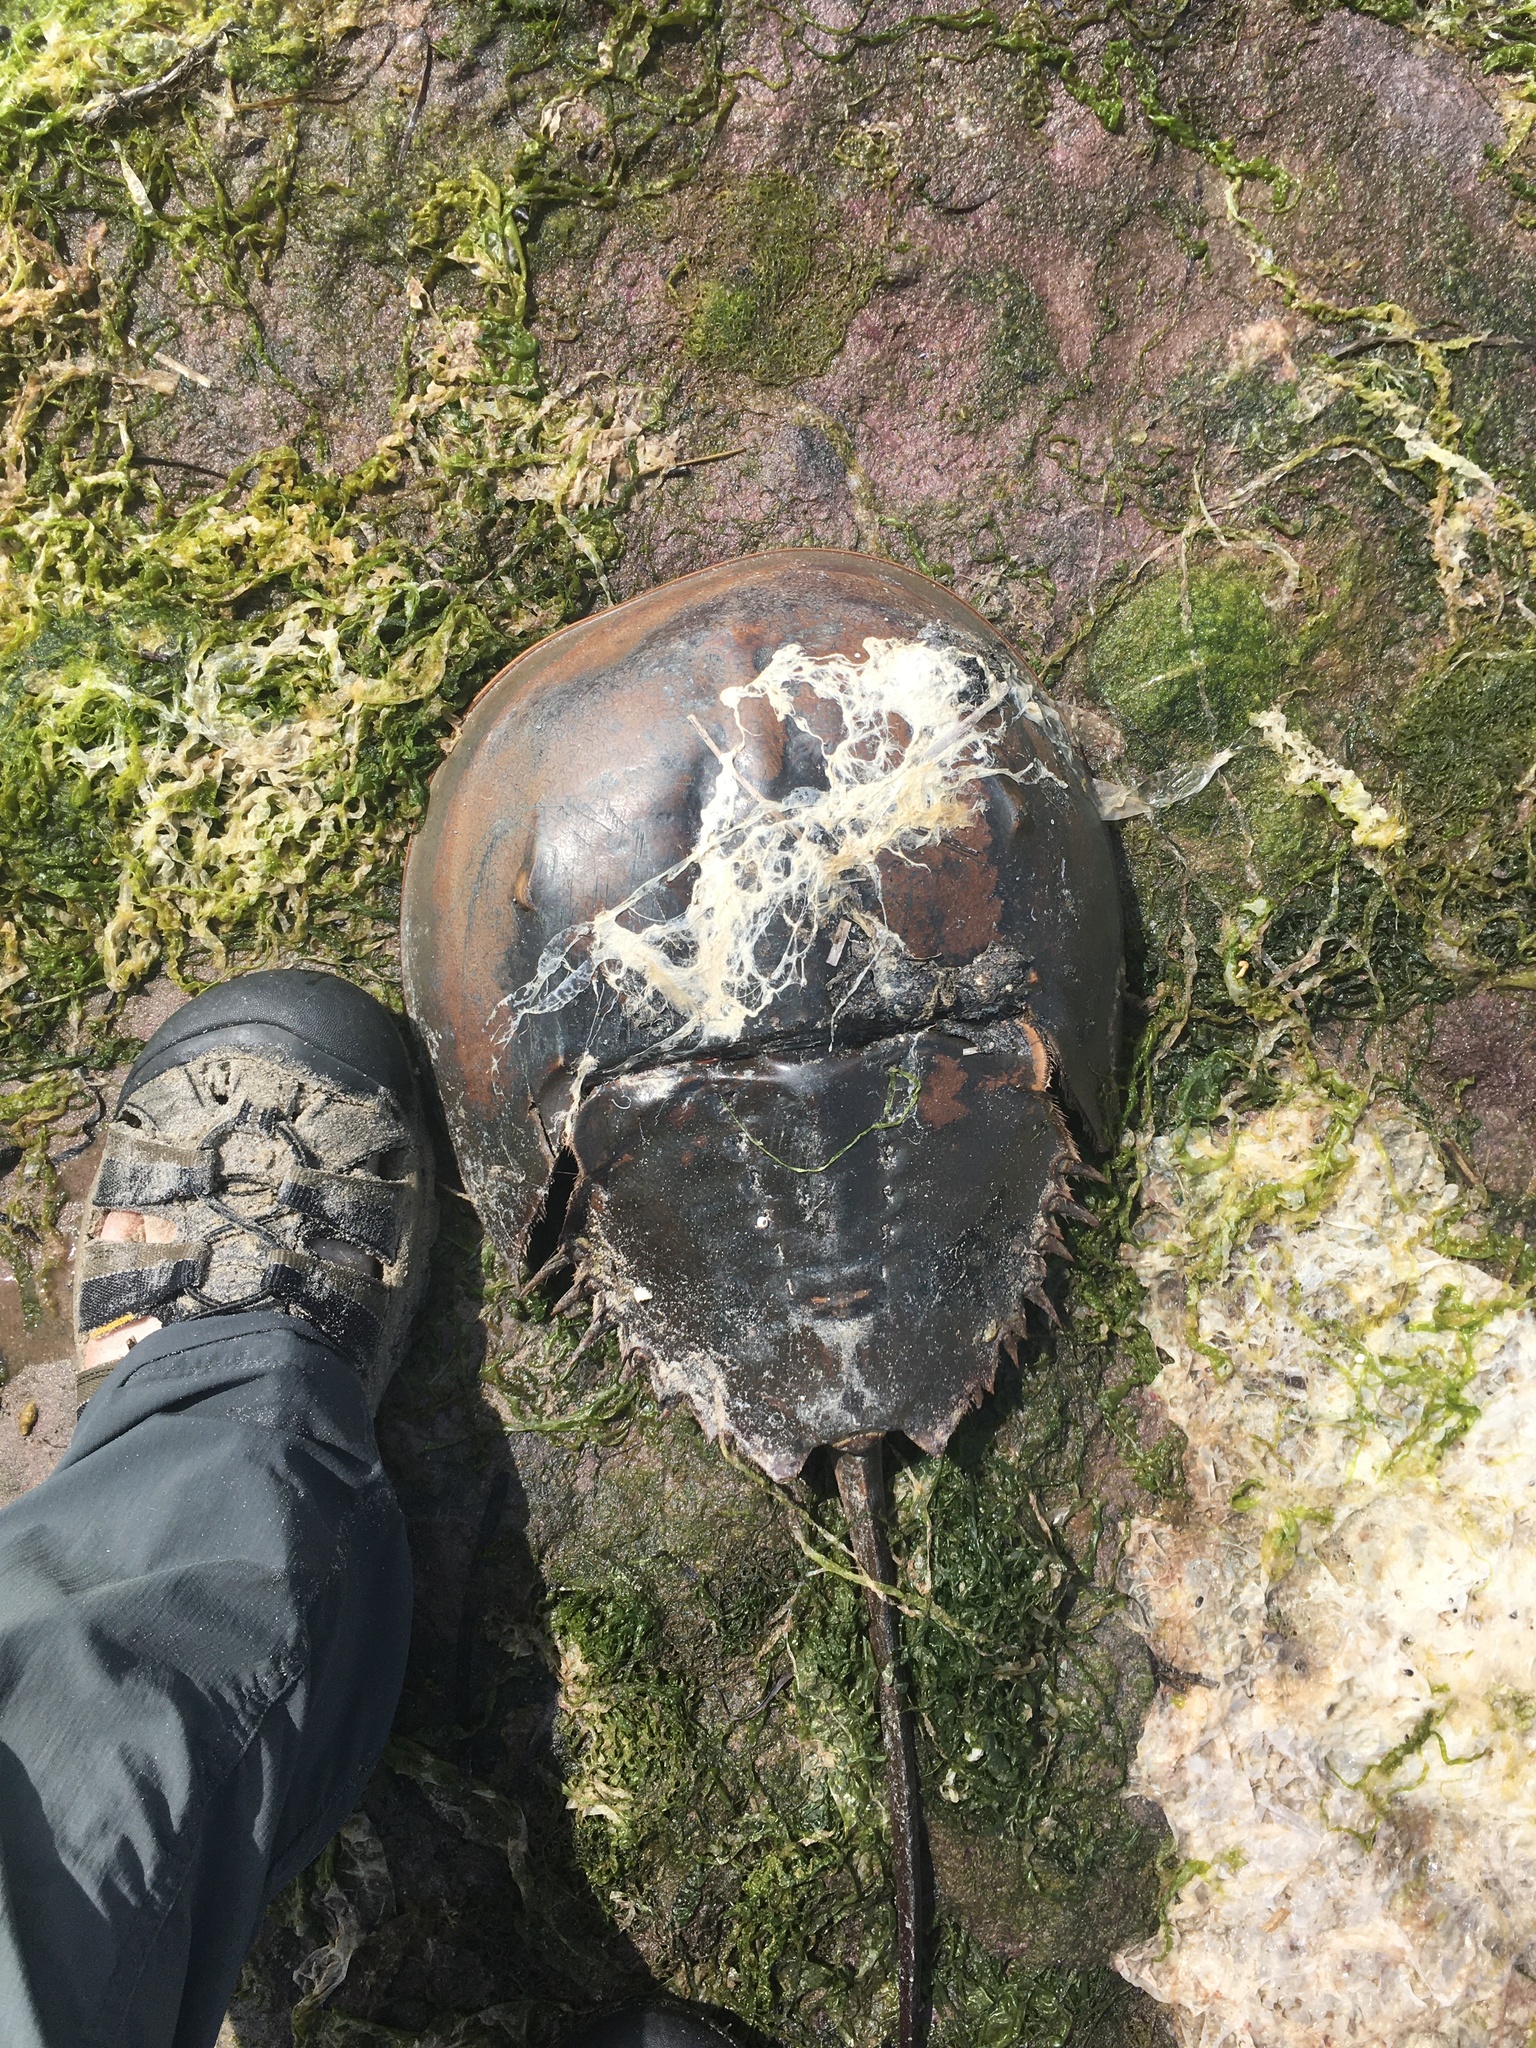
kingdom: Animalia
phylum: Arthropoda
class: Merostomata
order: Xiphosurida
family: Limulidae
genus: Limulus
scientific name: Limulus polyphemus
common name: Horseshoe crab
